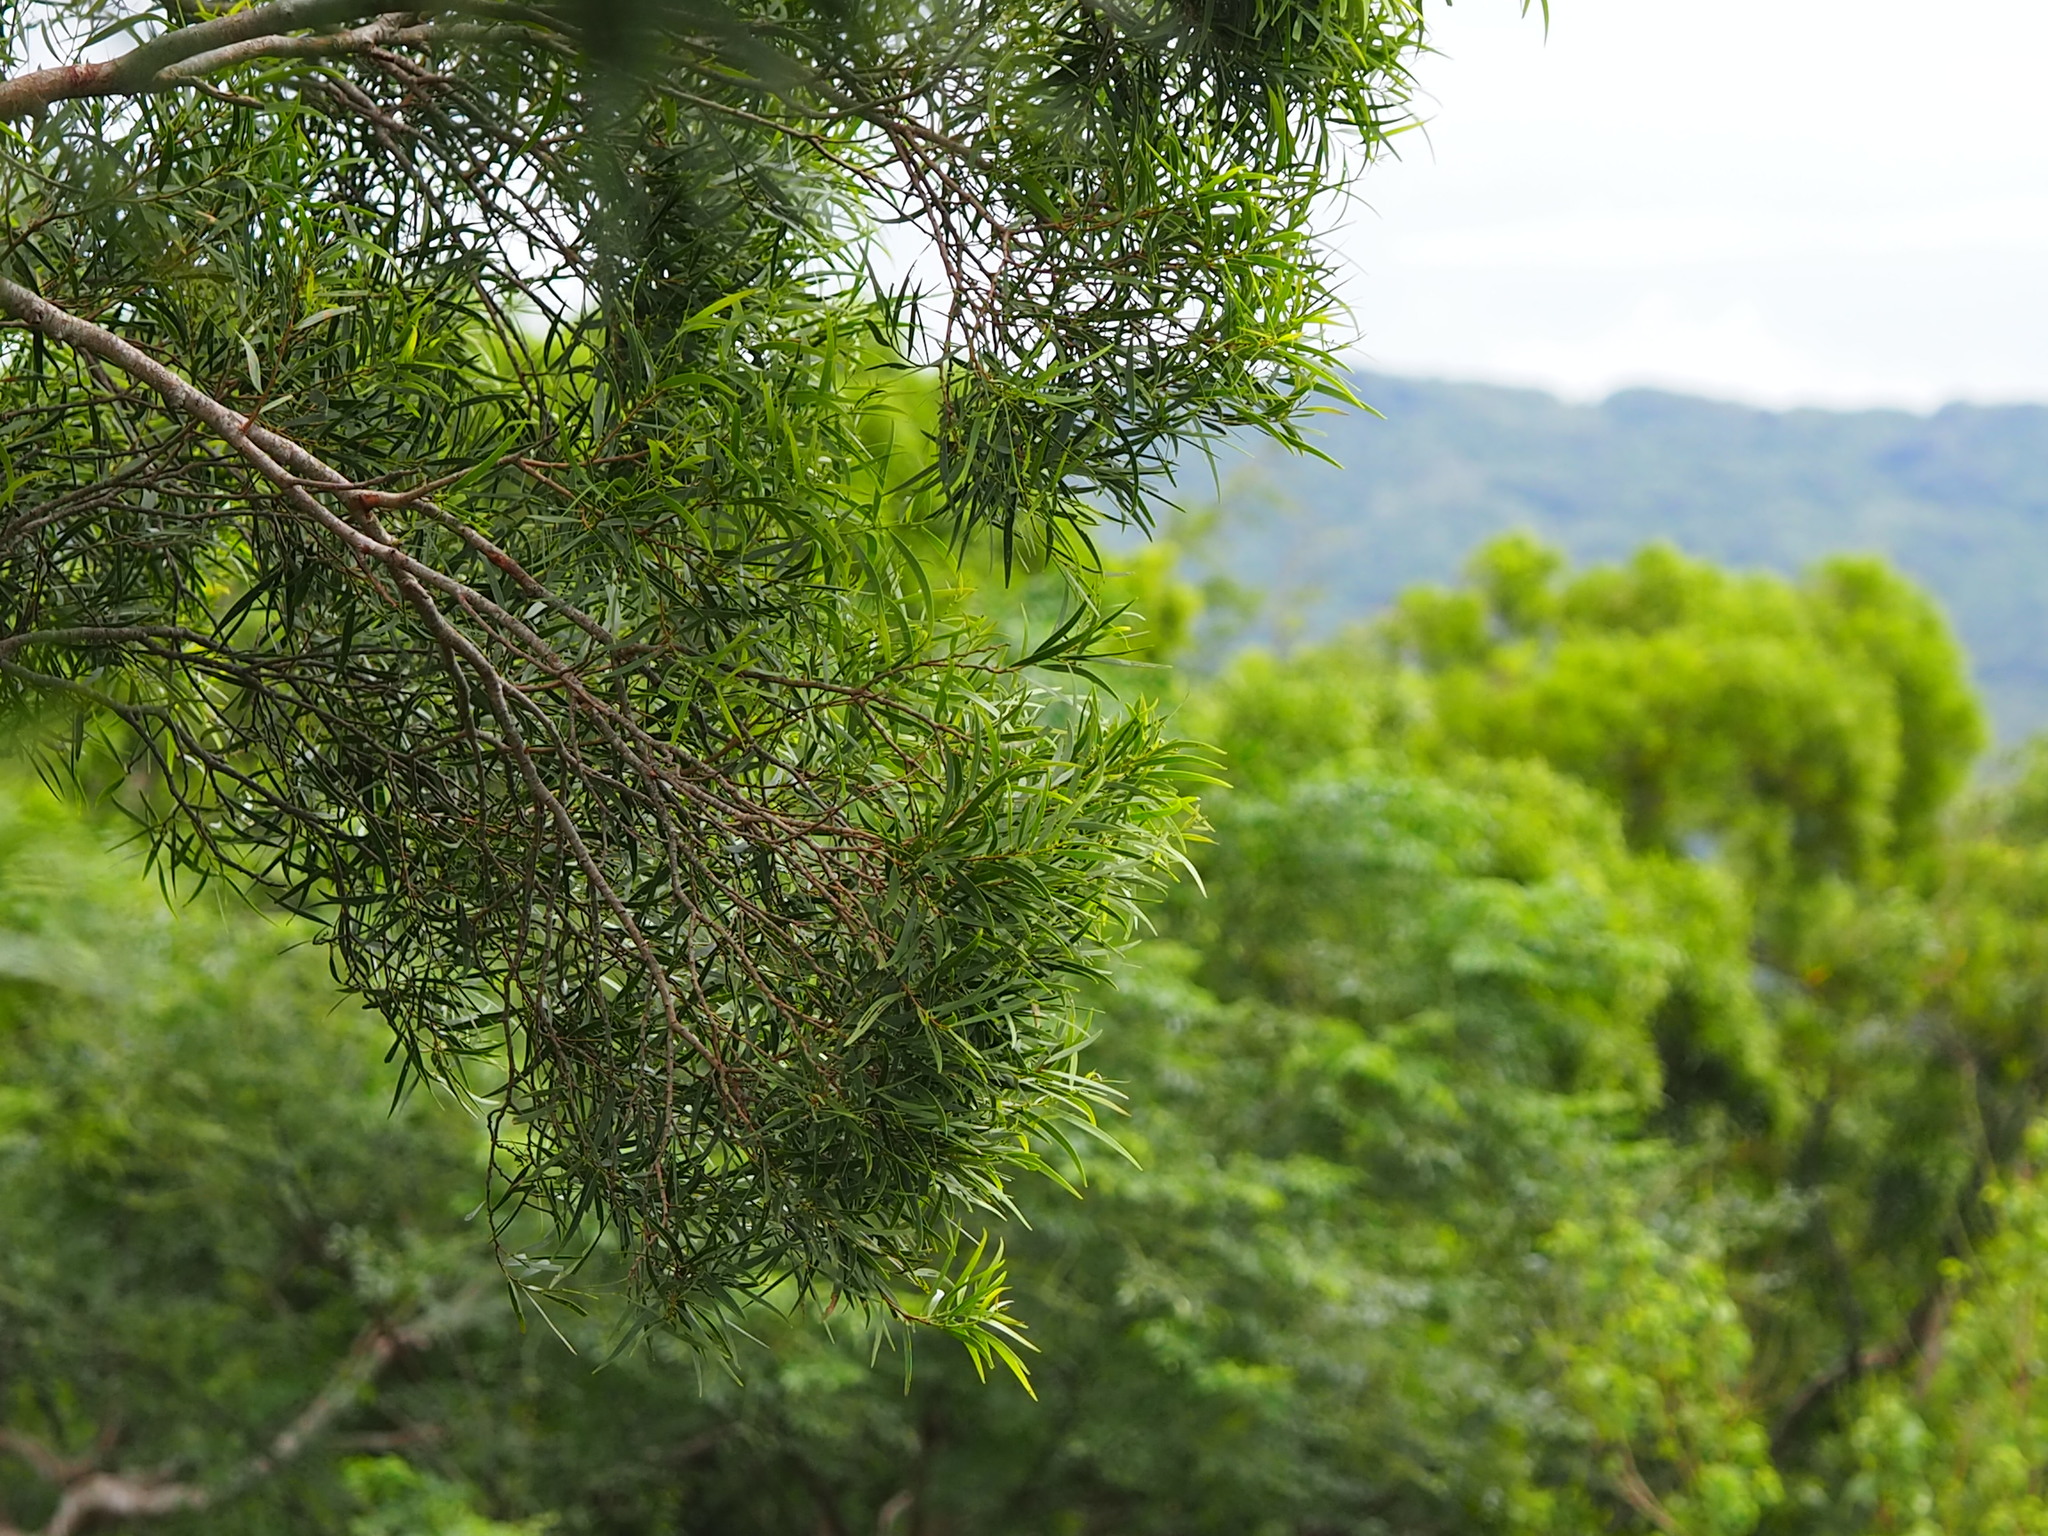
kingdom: Plantae
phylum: Tracheophyta
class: Magnoliopsida
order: Fabales
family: Fabaceae
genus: Acacia
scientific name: Acacia confusa
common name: Formosan koa
